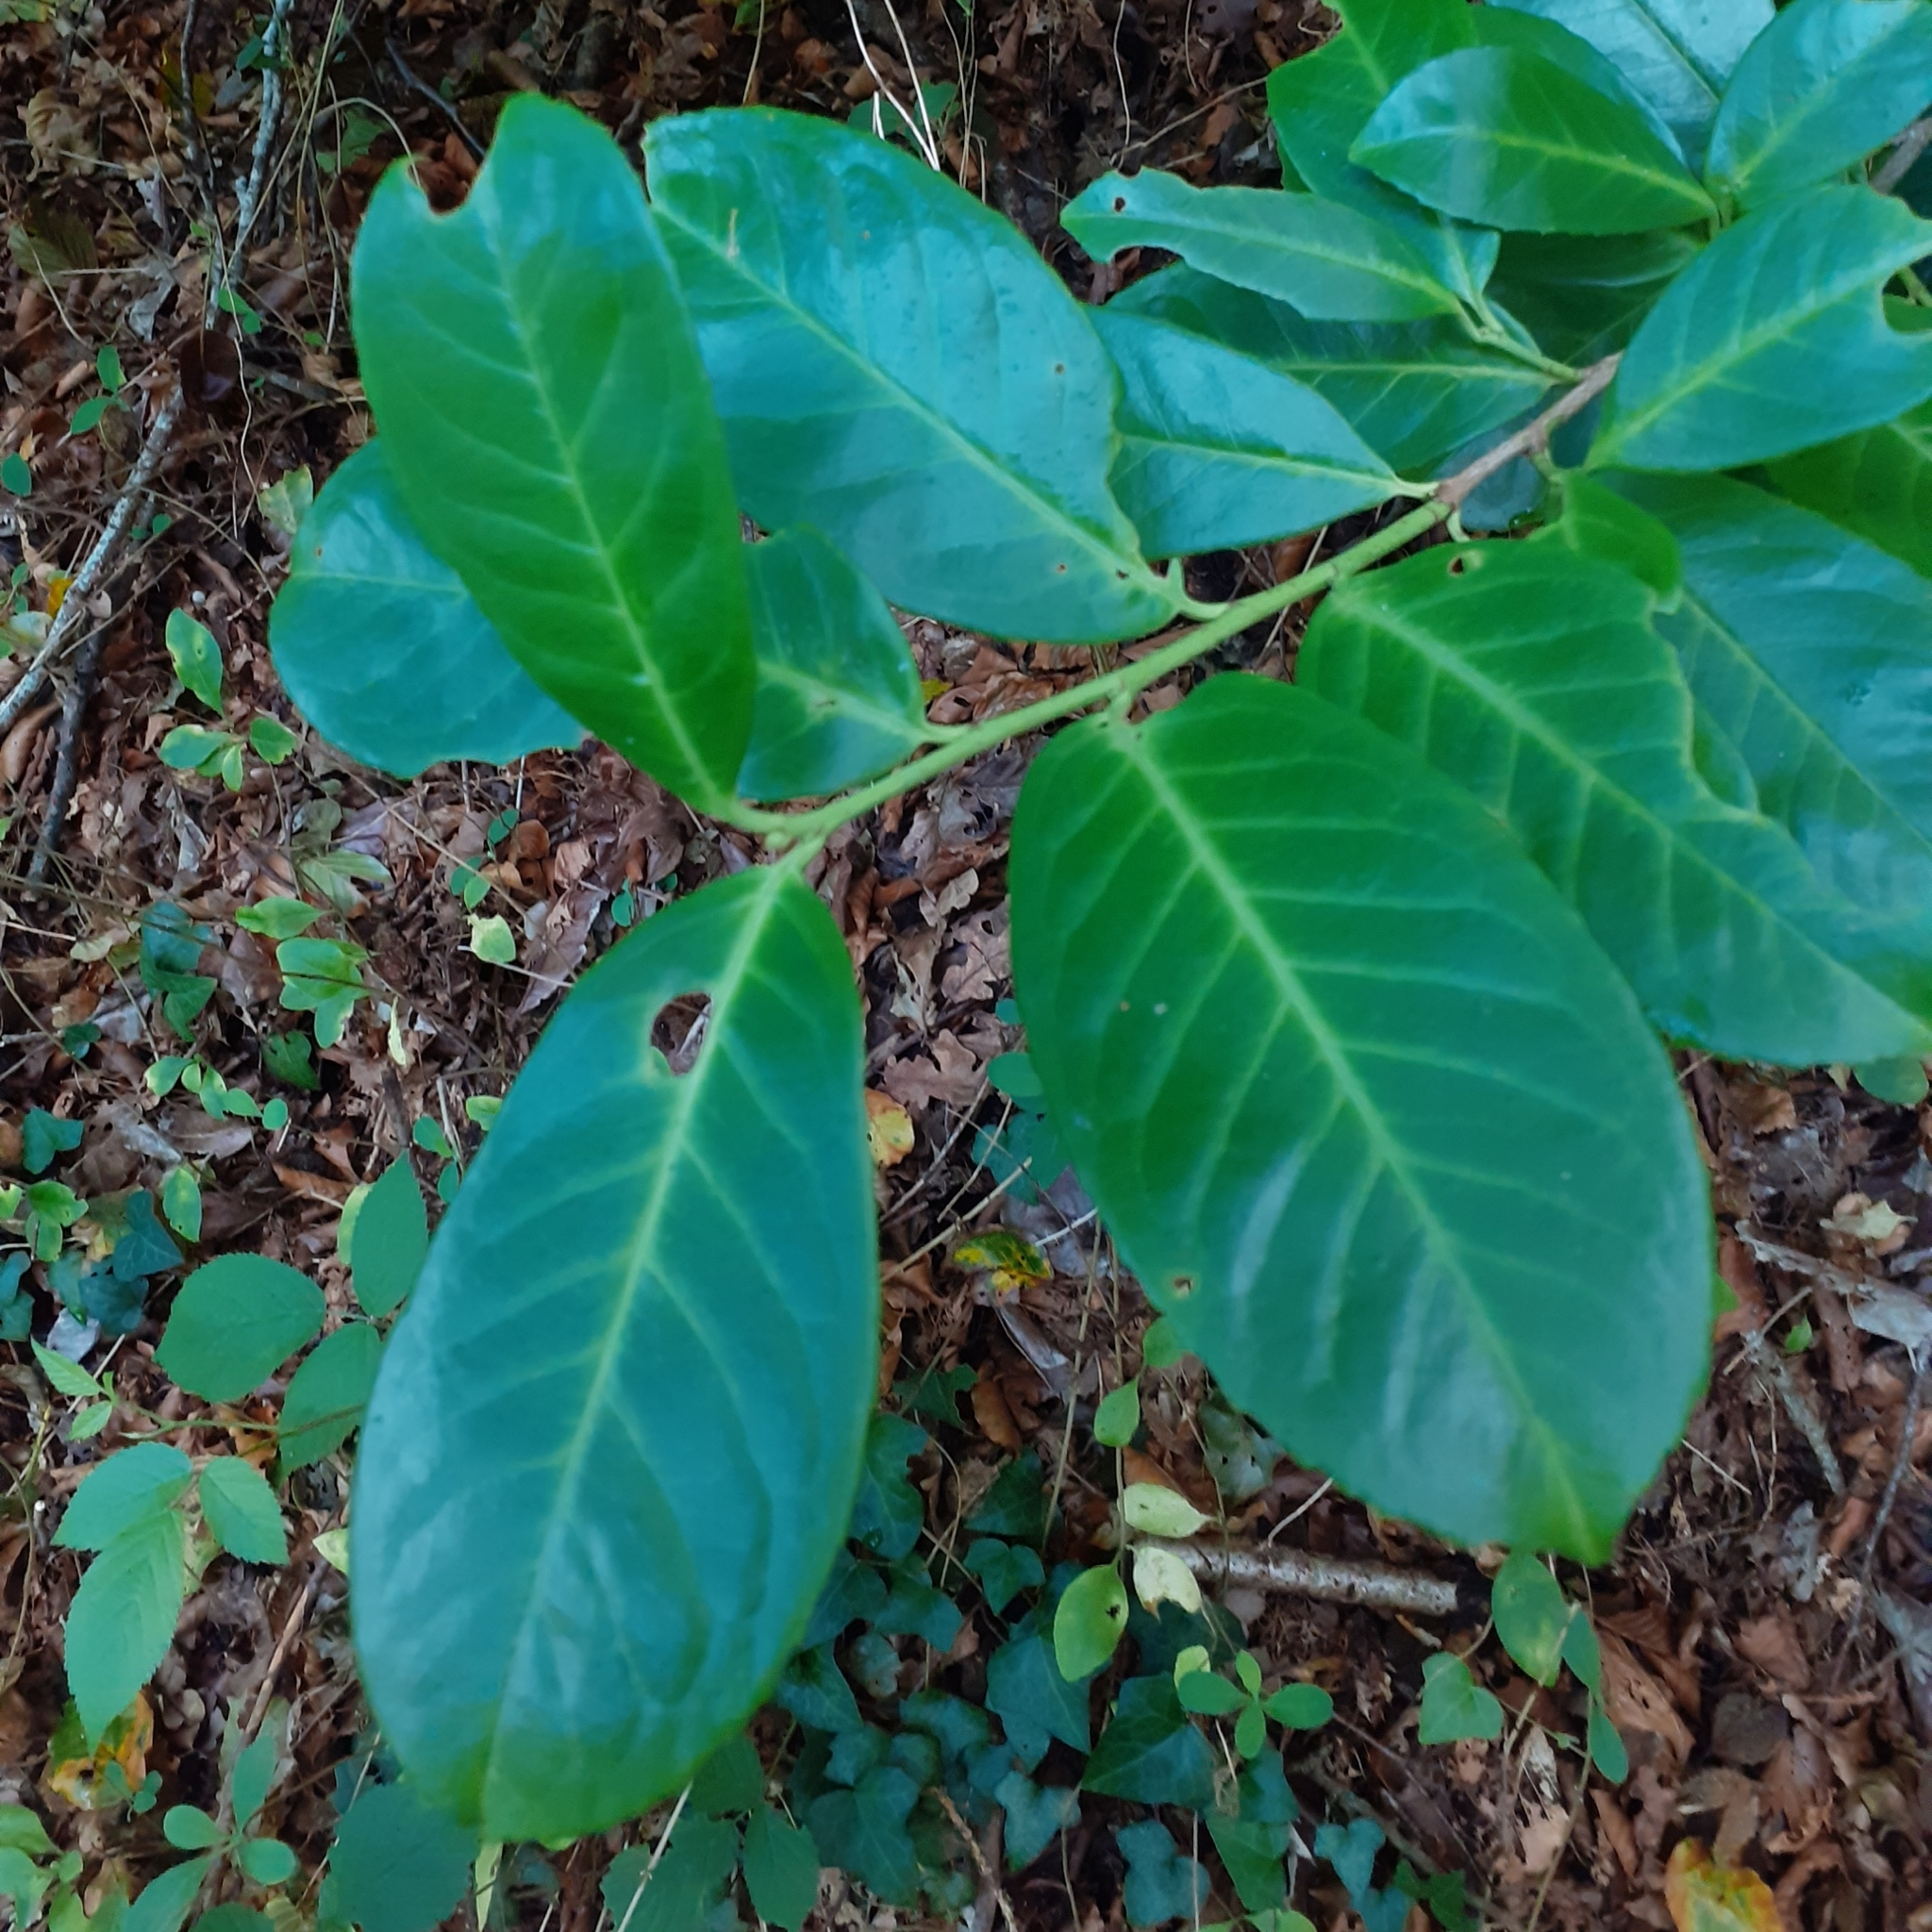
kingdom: Plantae
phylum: Tracheophyta
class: Magnoliopsida
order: Rosales
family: Rosaceae
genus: Prunus
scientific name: Prunus laurocerasus
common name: Cherry laurel
